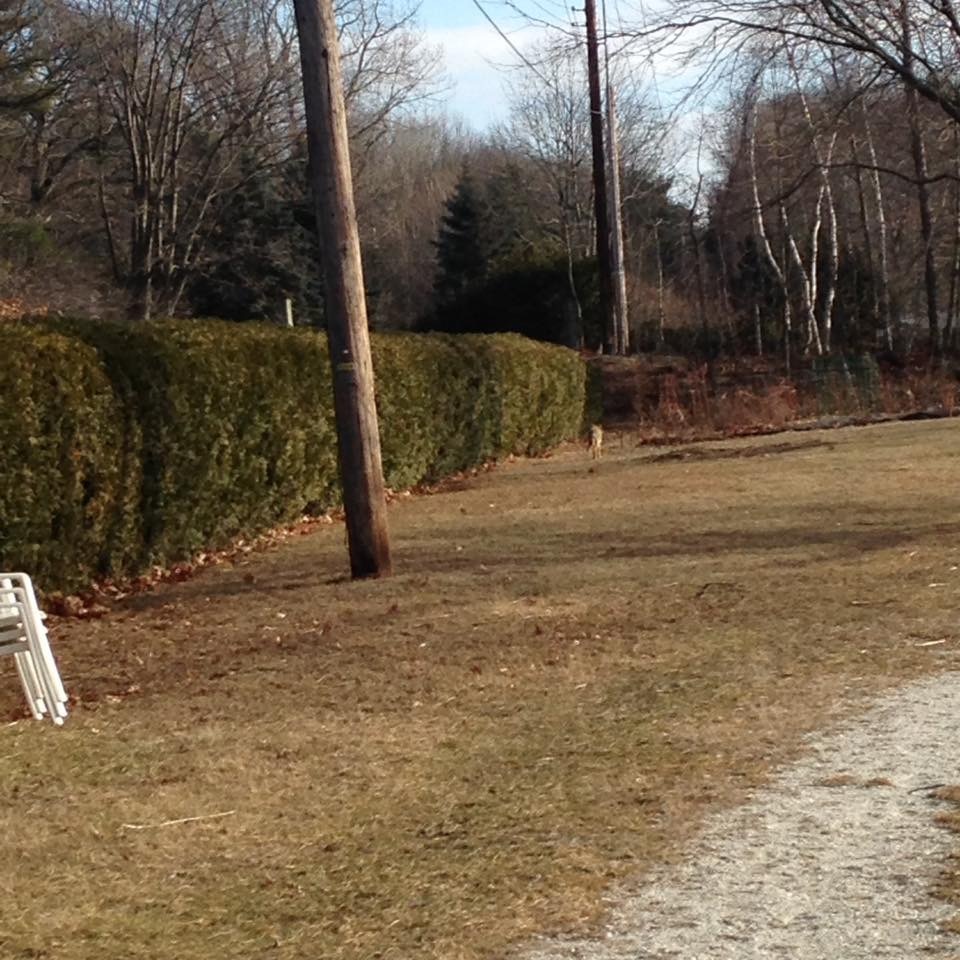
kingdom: Animalia
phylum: Chordata
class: Mammalia
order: Carnivora
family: Canidae
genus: Canis
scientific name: Canis latrans
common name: Coyote
